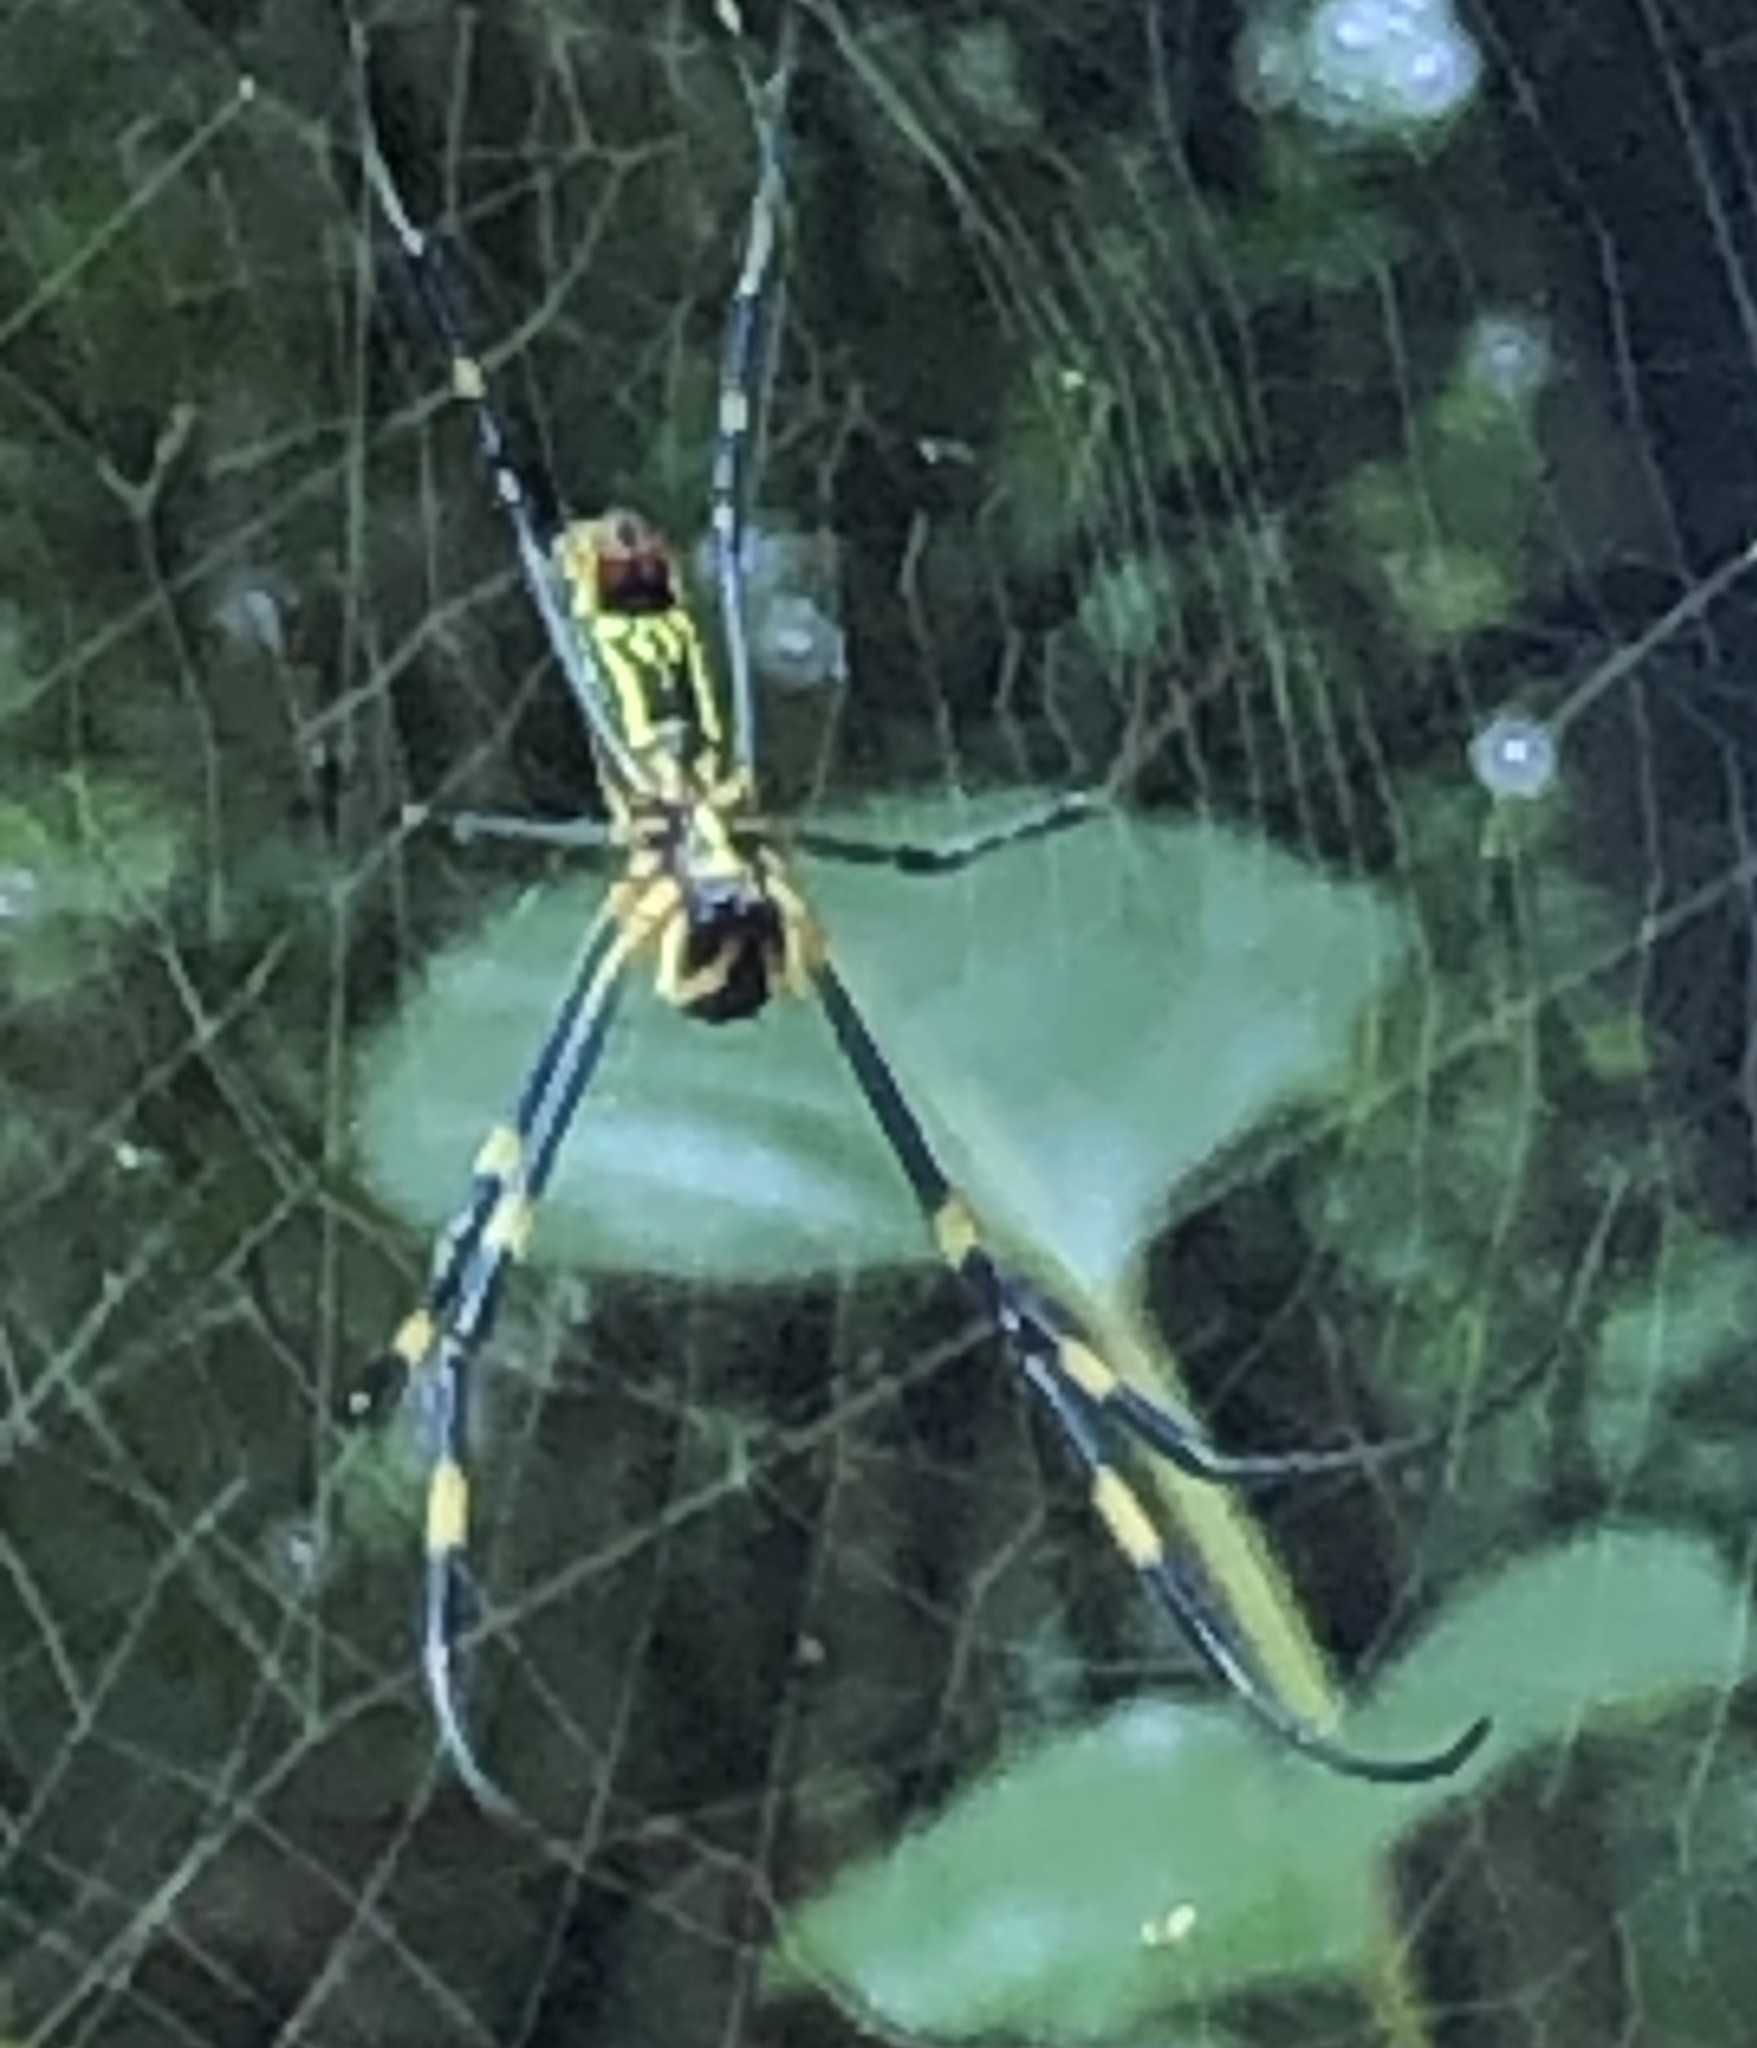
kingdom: Animalia
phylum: Arthropoda
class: Arachnida
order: Araneae
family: Araneidae
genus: Trichonephila
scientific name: Trichonephila clavata
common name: Jorō spider
